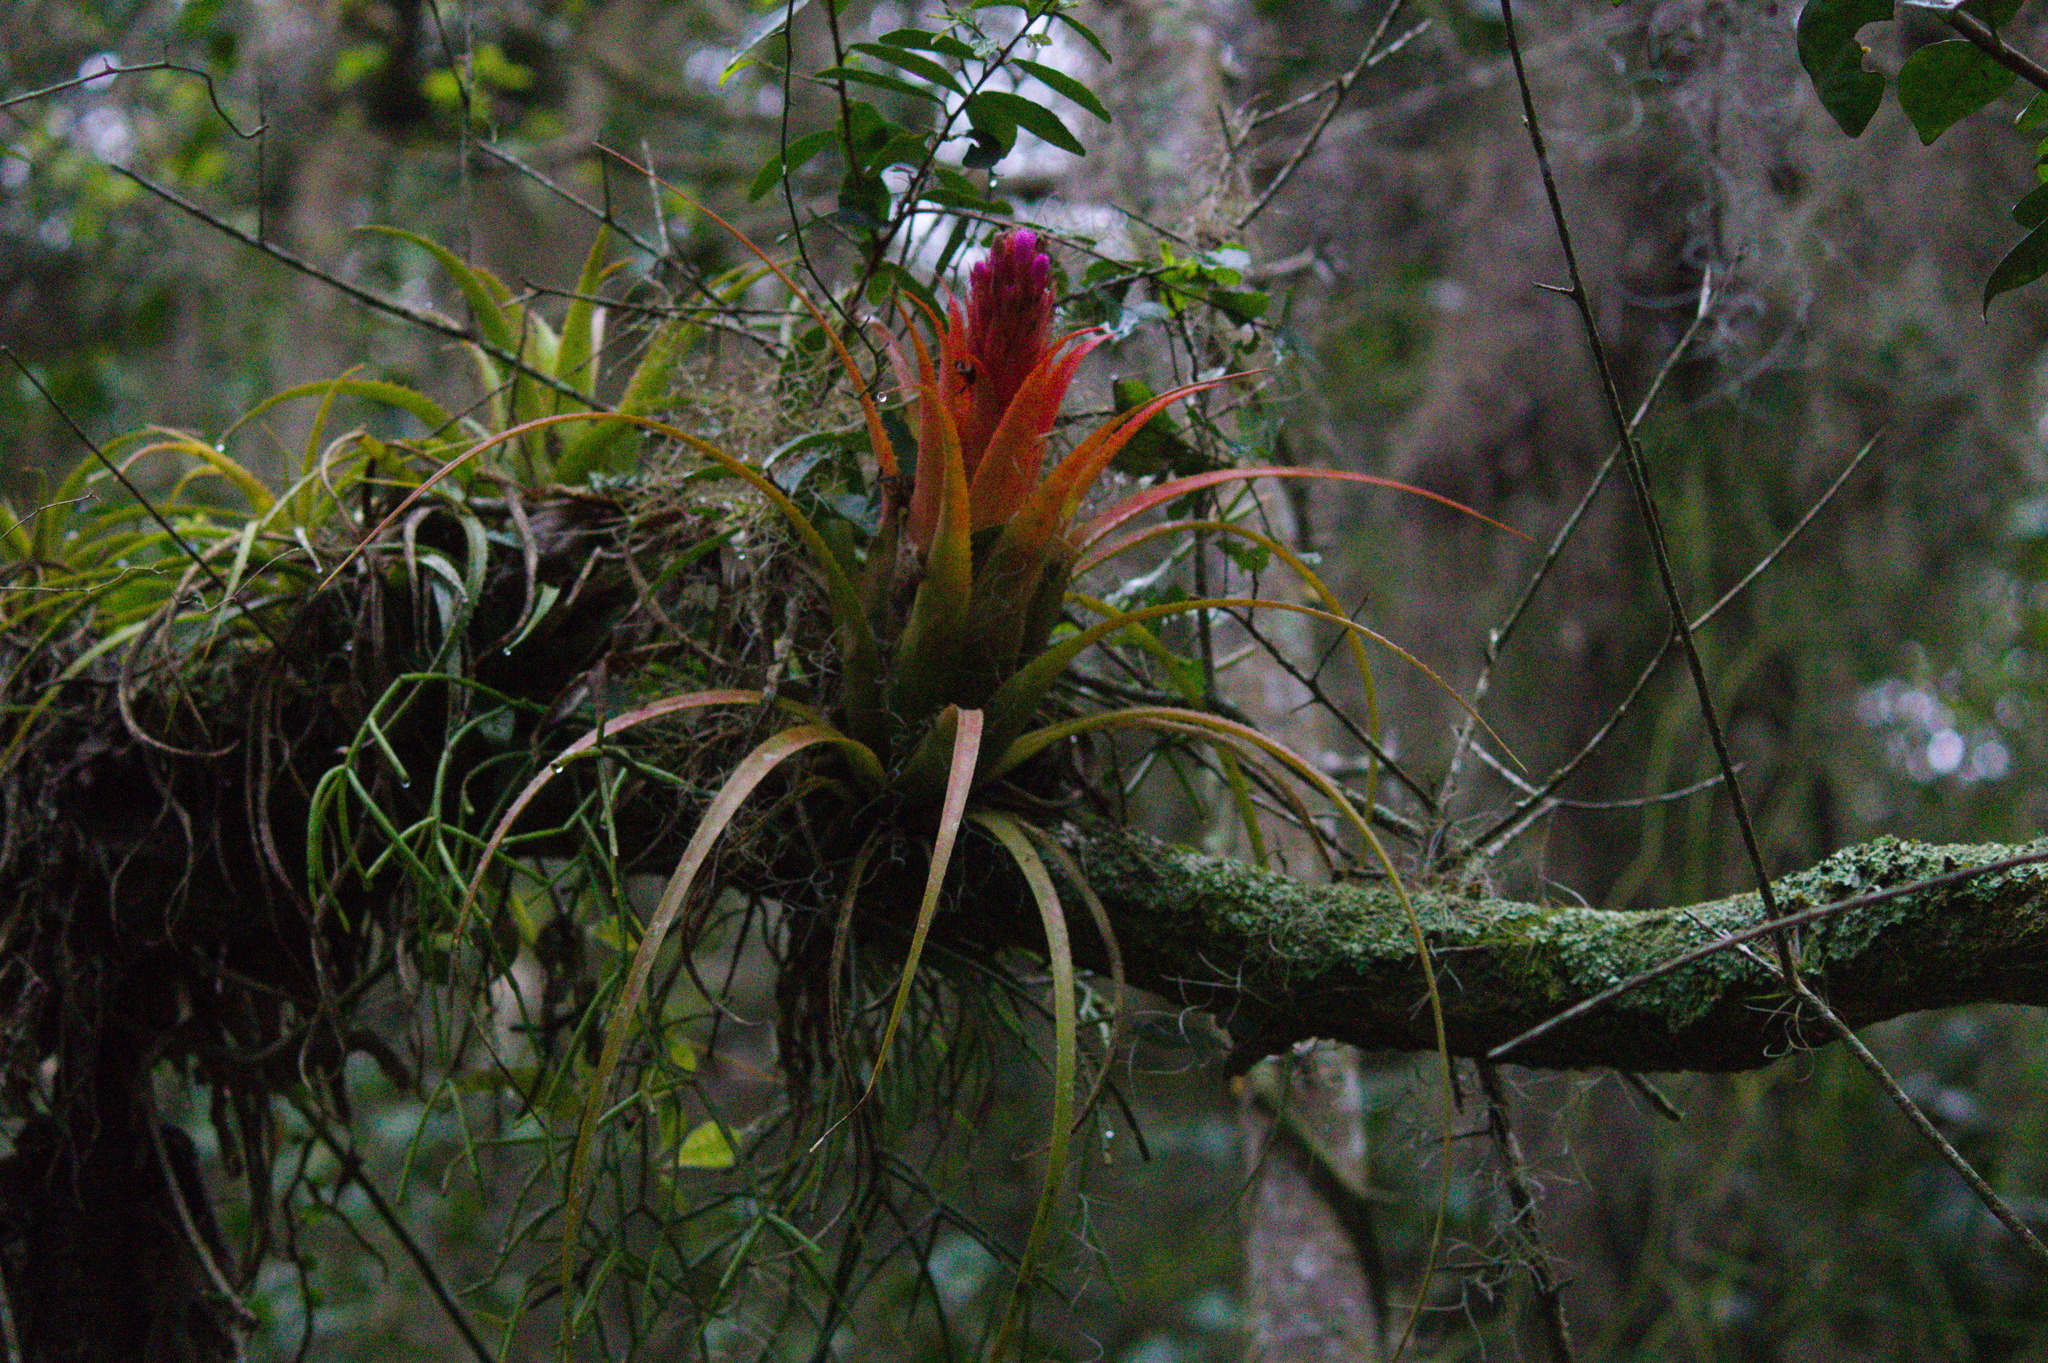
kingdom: Plantae
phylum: Tracheophyta
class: Liliopsida
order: Poales
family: Bromeliaceae
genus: Aechmea
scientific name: Aechmea recurvata
